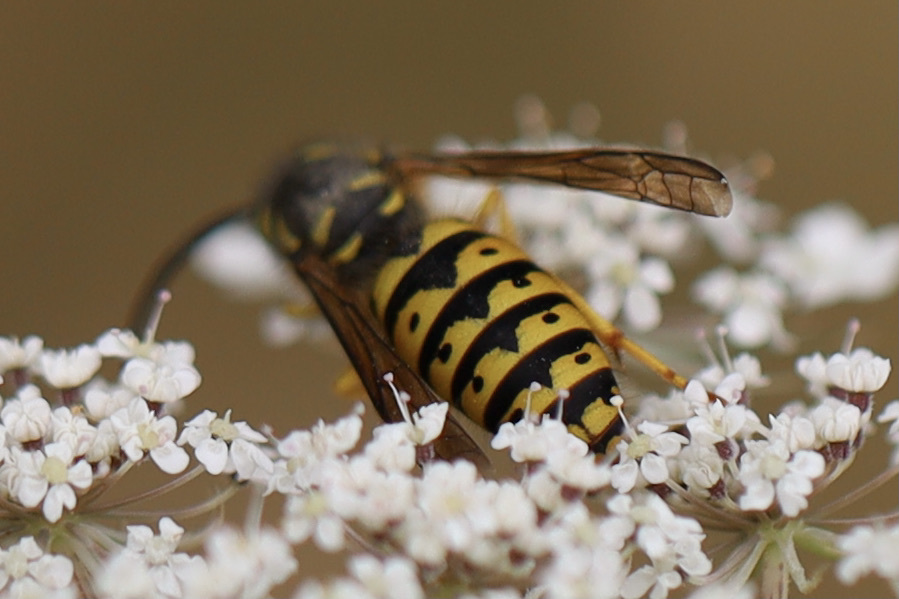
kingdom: Animalia
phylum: Arthropoda
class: Insecta
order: Hymenoptera
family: Vespidae
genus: Dolichovespula
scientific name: Dolichovespula arenaria
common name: Aerial yellowjacket
